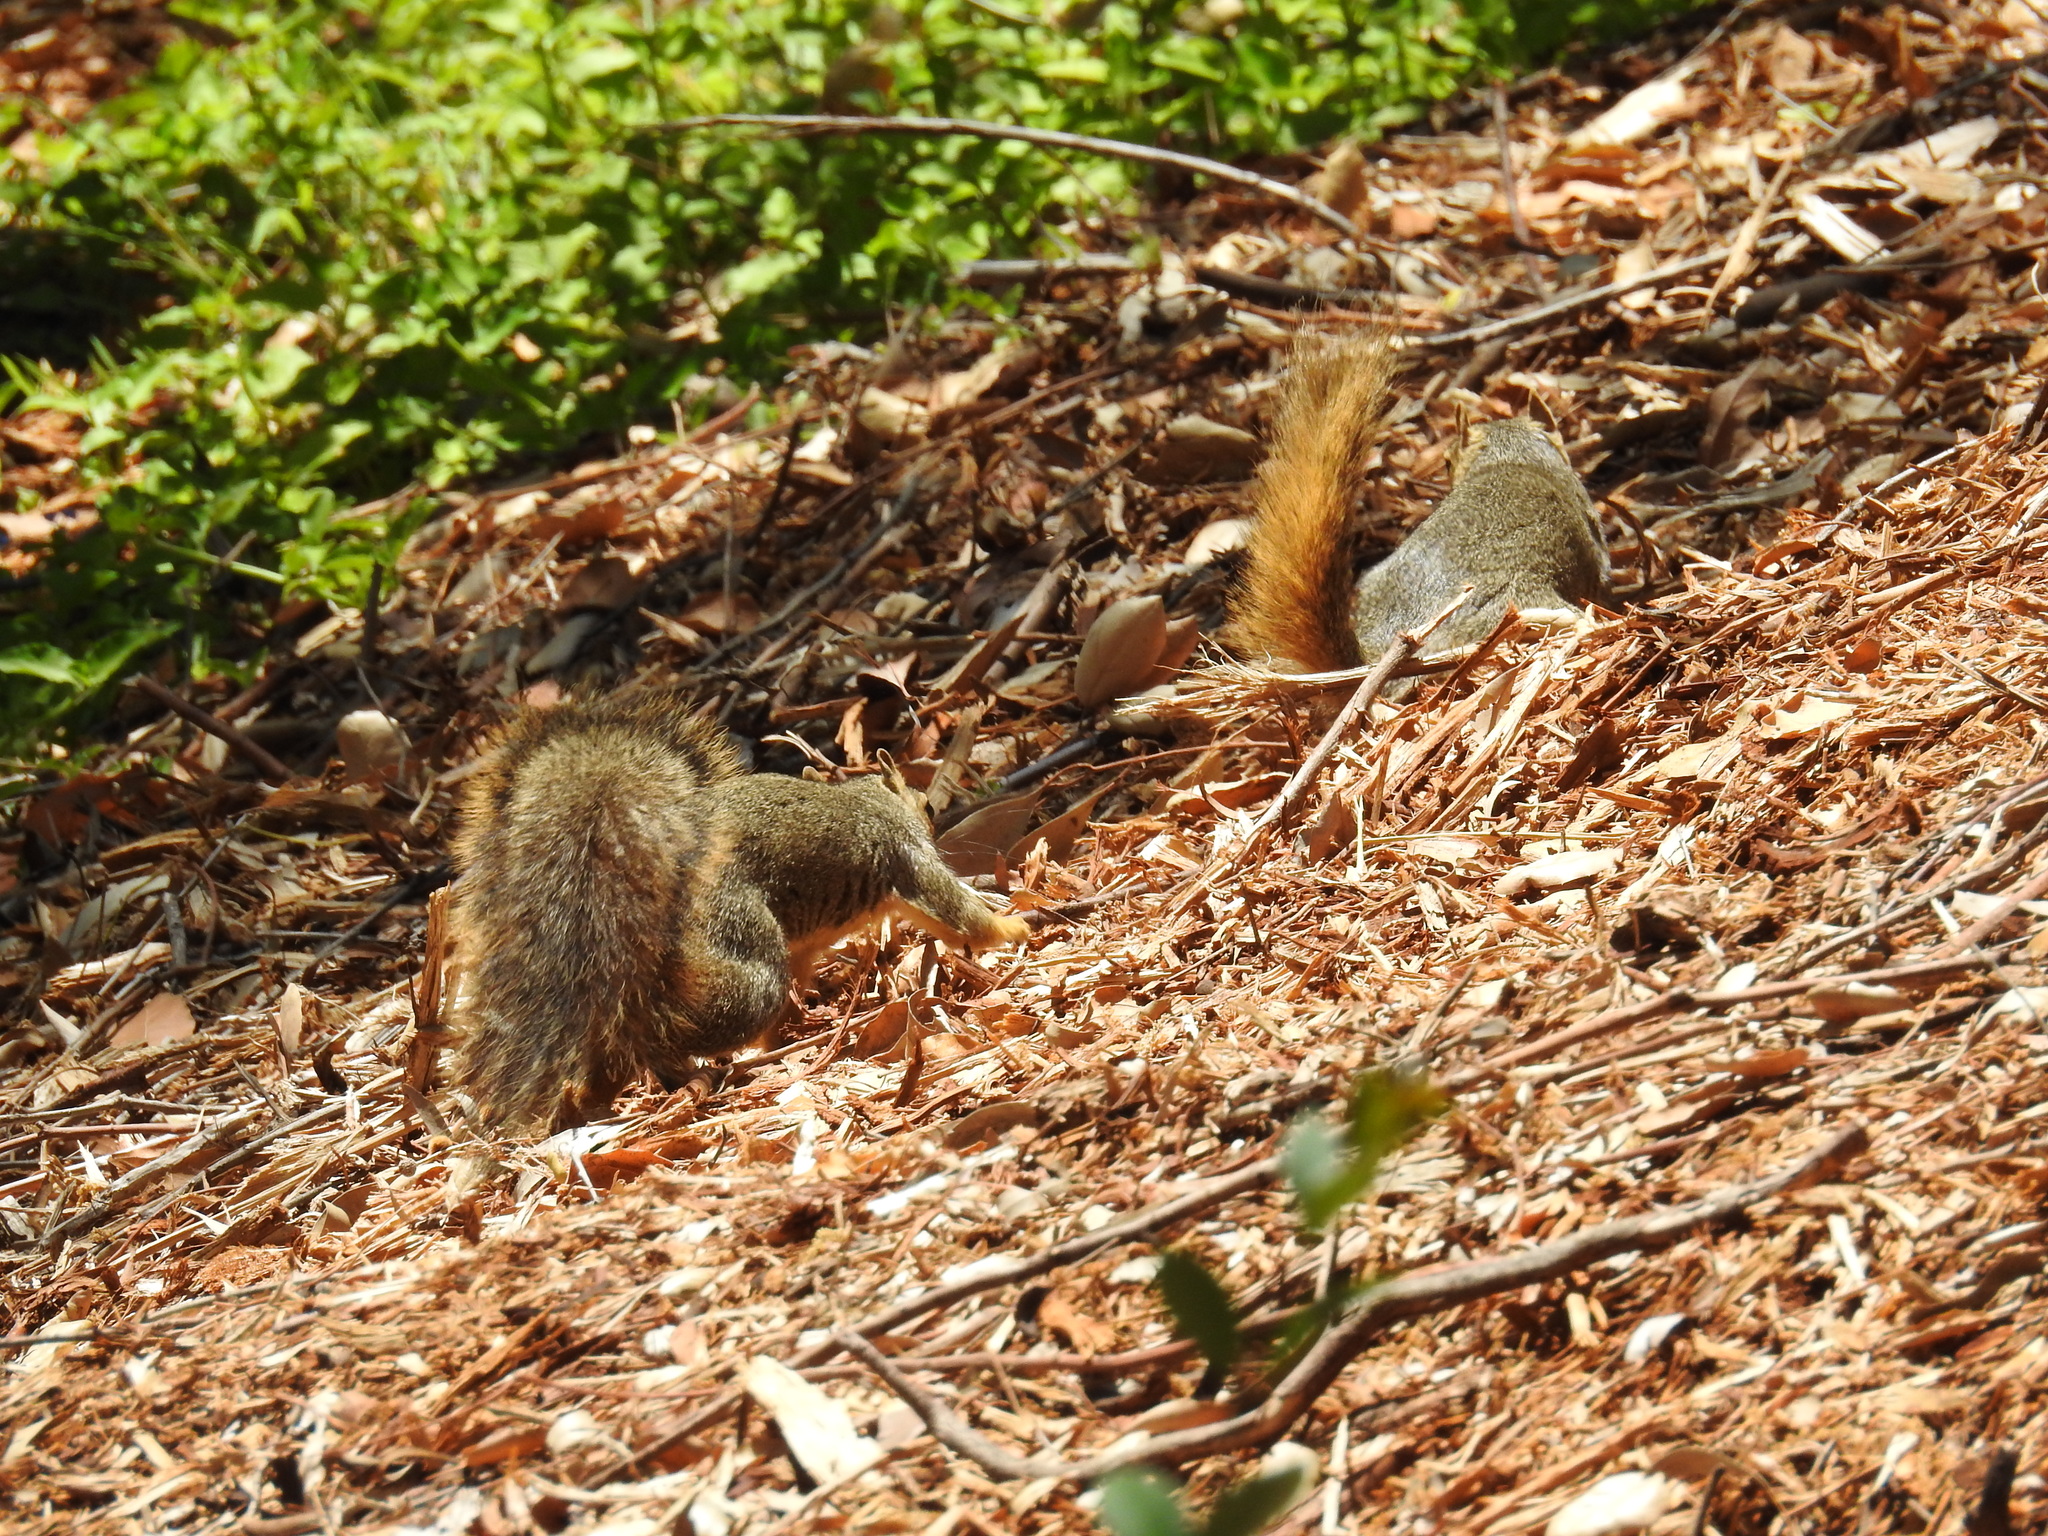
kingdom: Animalia
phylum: Chordata
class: Mammalia
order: Rodentia
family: Sciuridae
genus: Sciurus
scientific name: Sciurus niger
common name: Fox squirrel
